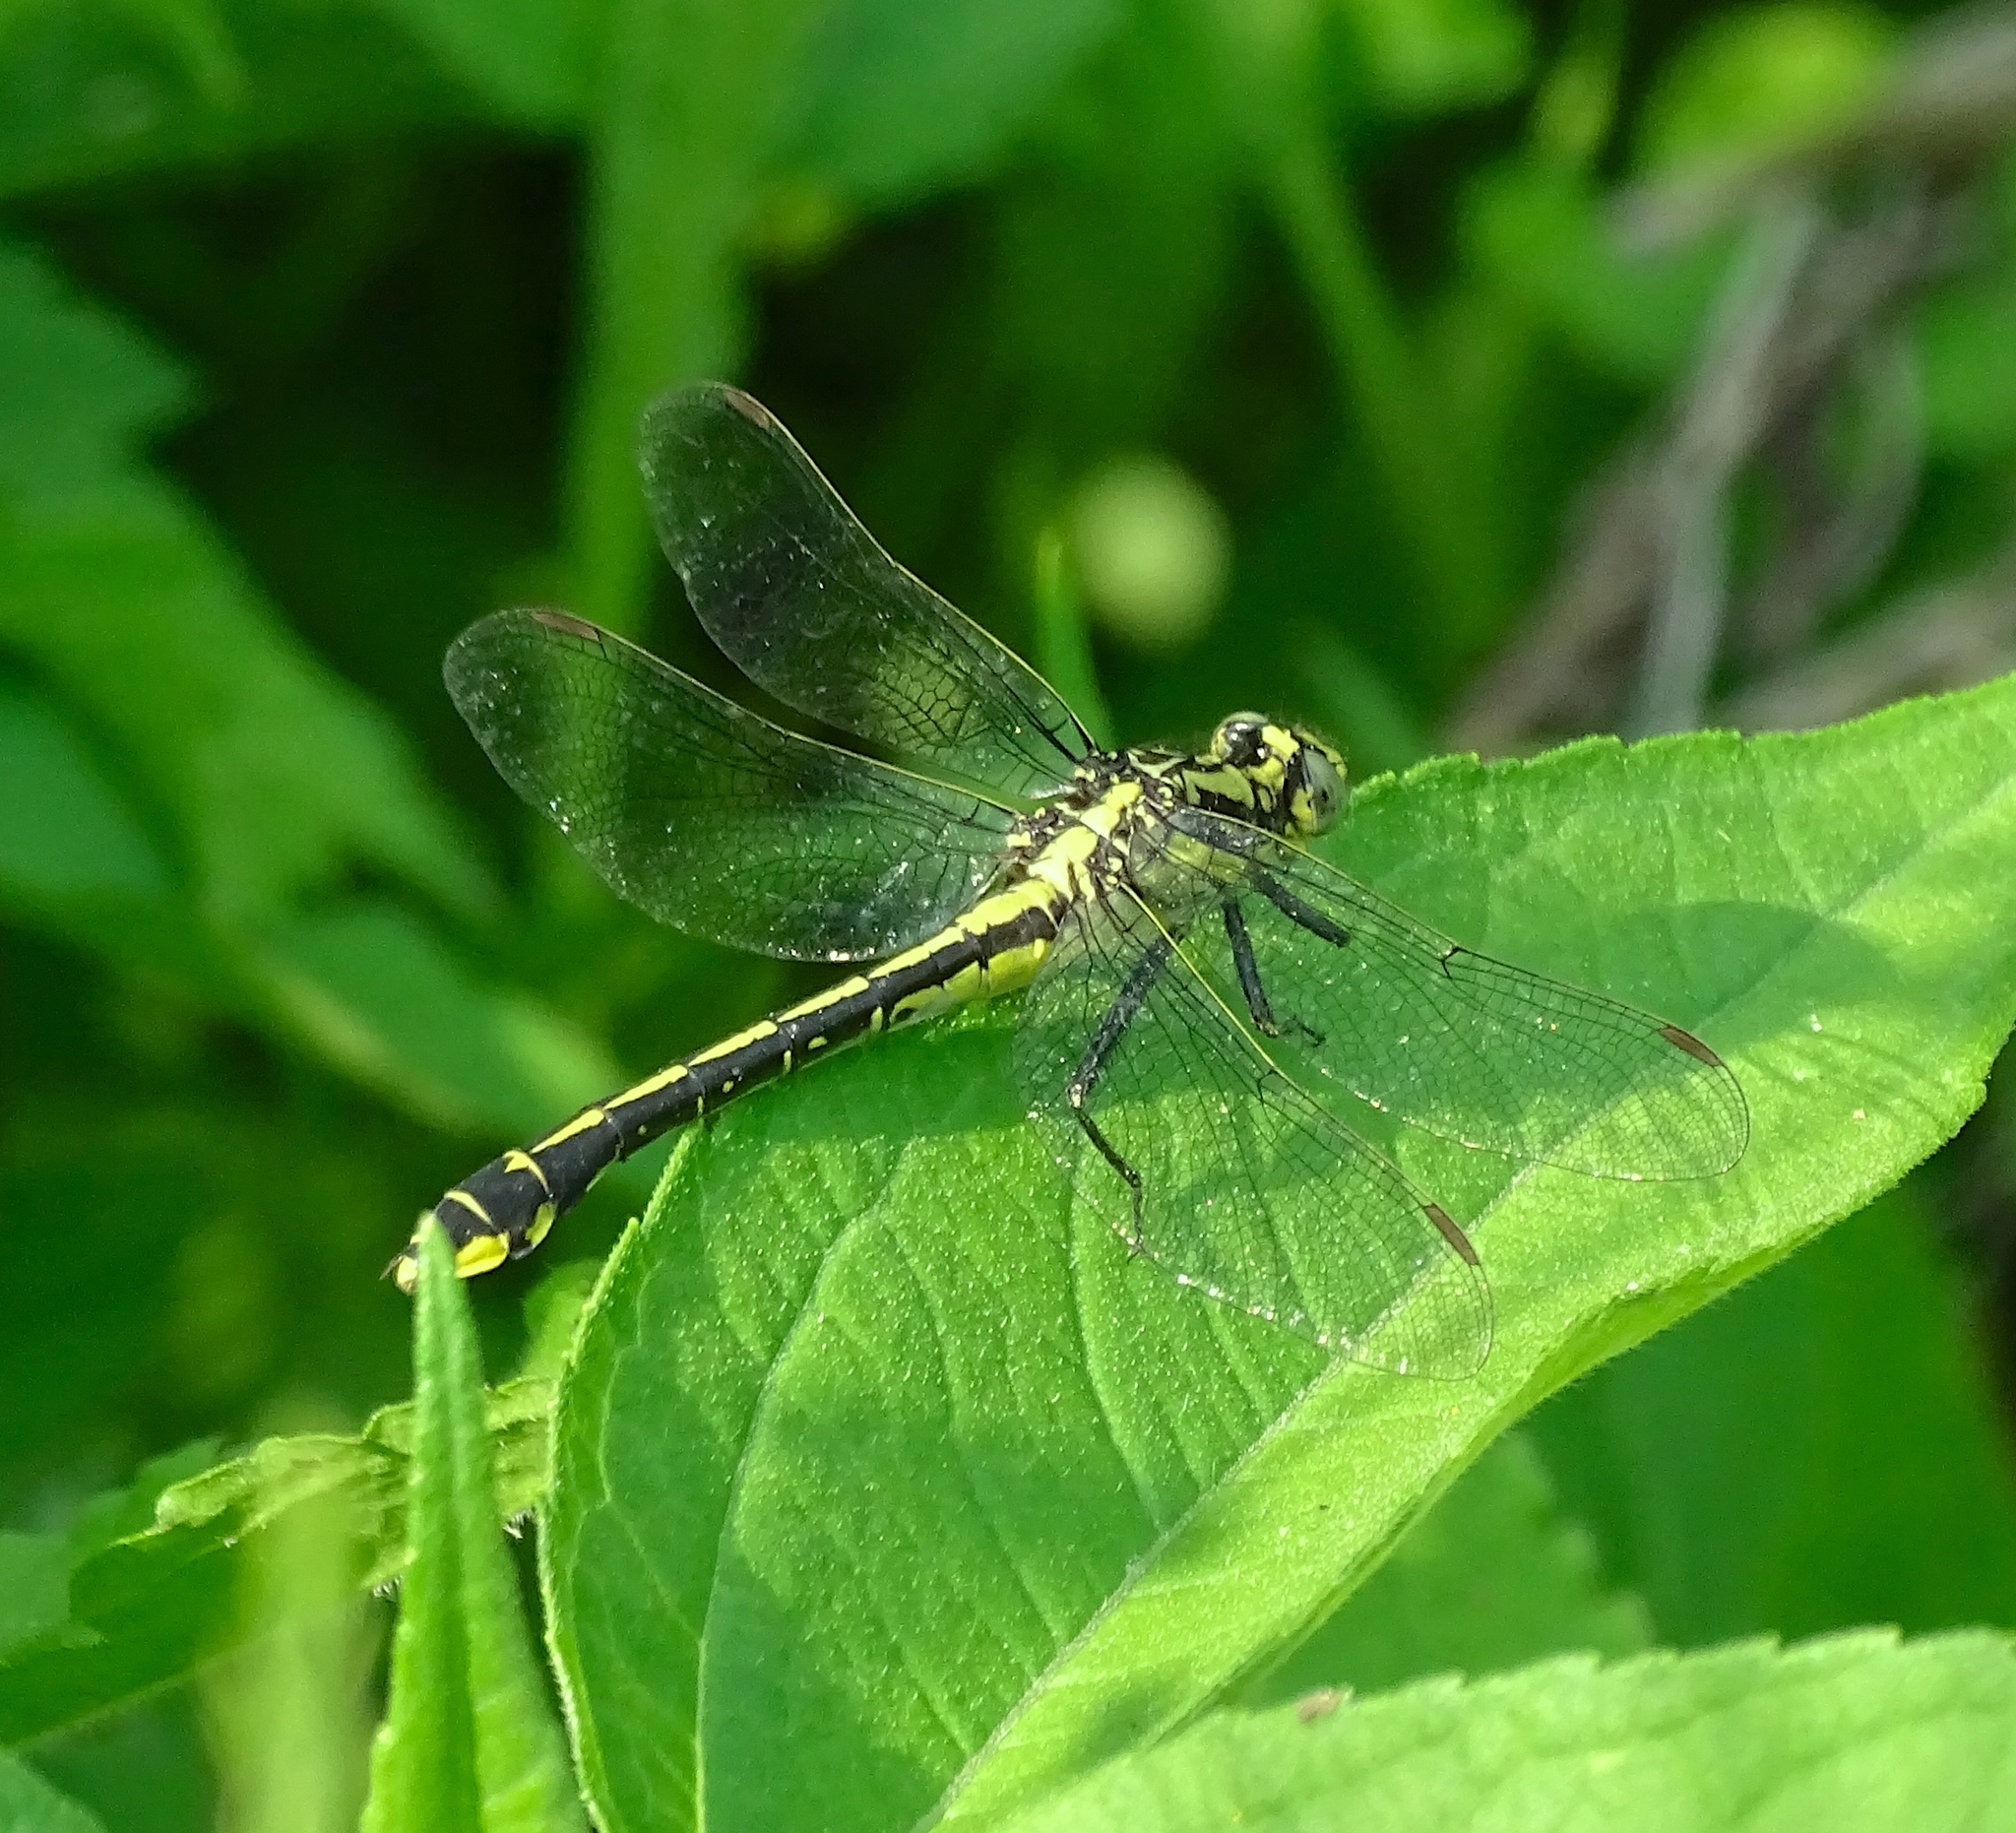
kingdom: Animalia
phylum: Arthropoda
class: Insecta
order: Odonata
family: Gomphidae
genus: Gomphurus
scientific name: Gomphurus fraternus
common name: Midland clubtail
